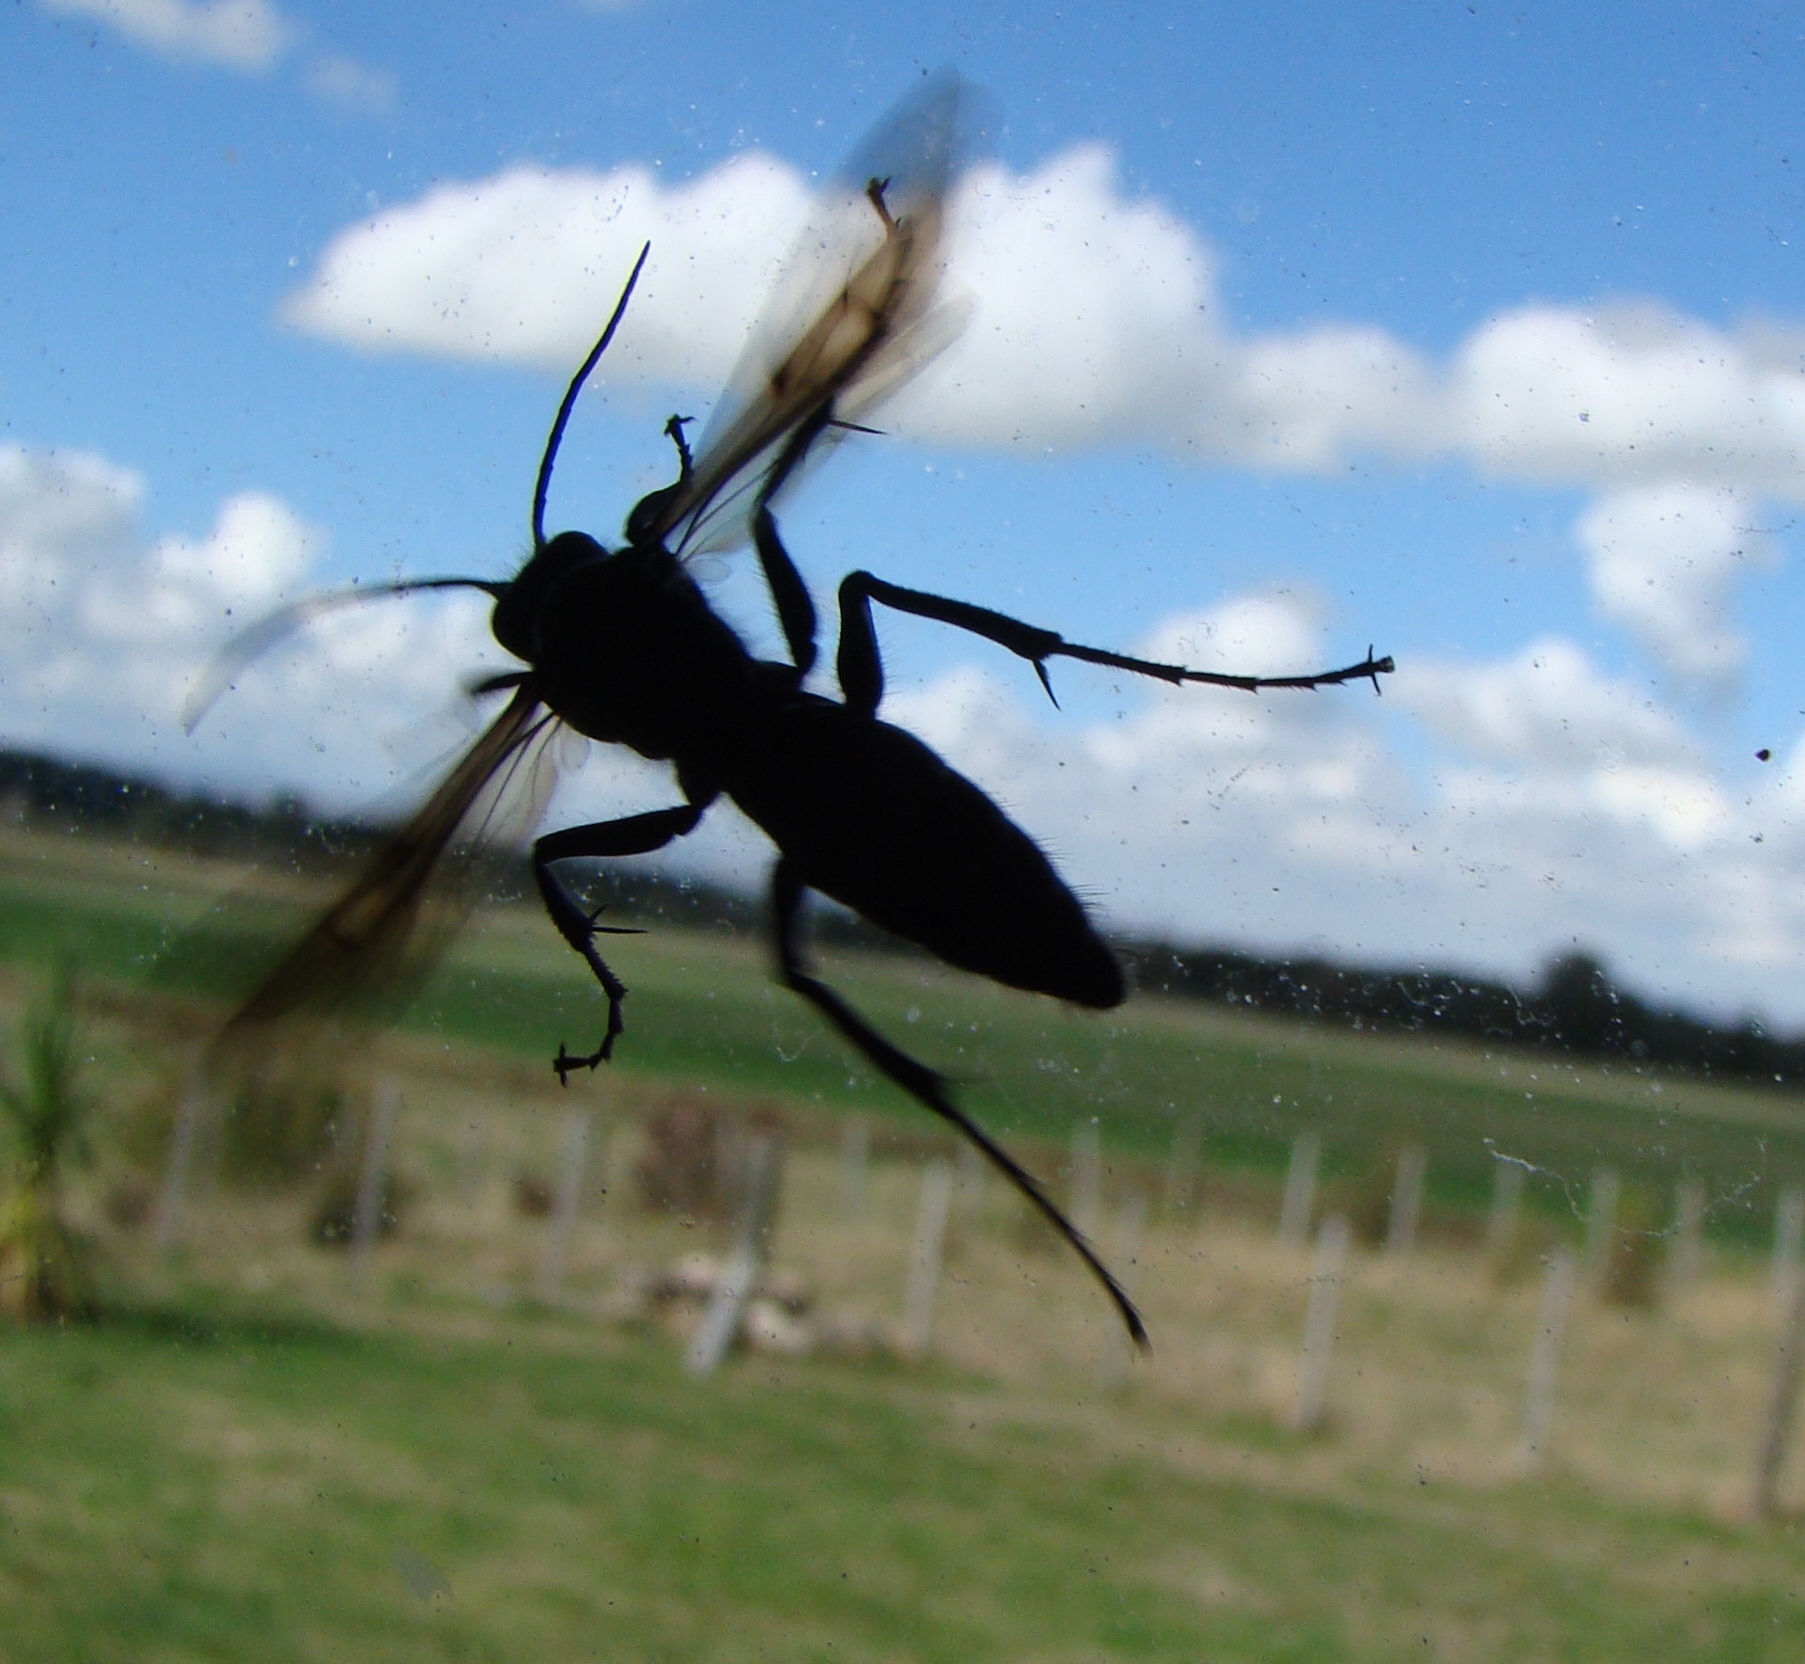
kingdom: Animalia
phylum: Arthropoda
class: Insecta
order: Hymenoptera
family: Pompilidae
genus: Priocnemis
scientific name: Priocnemis monachus
